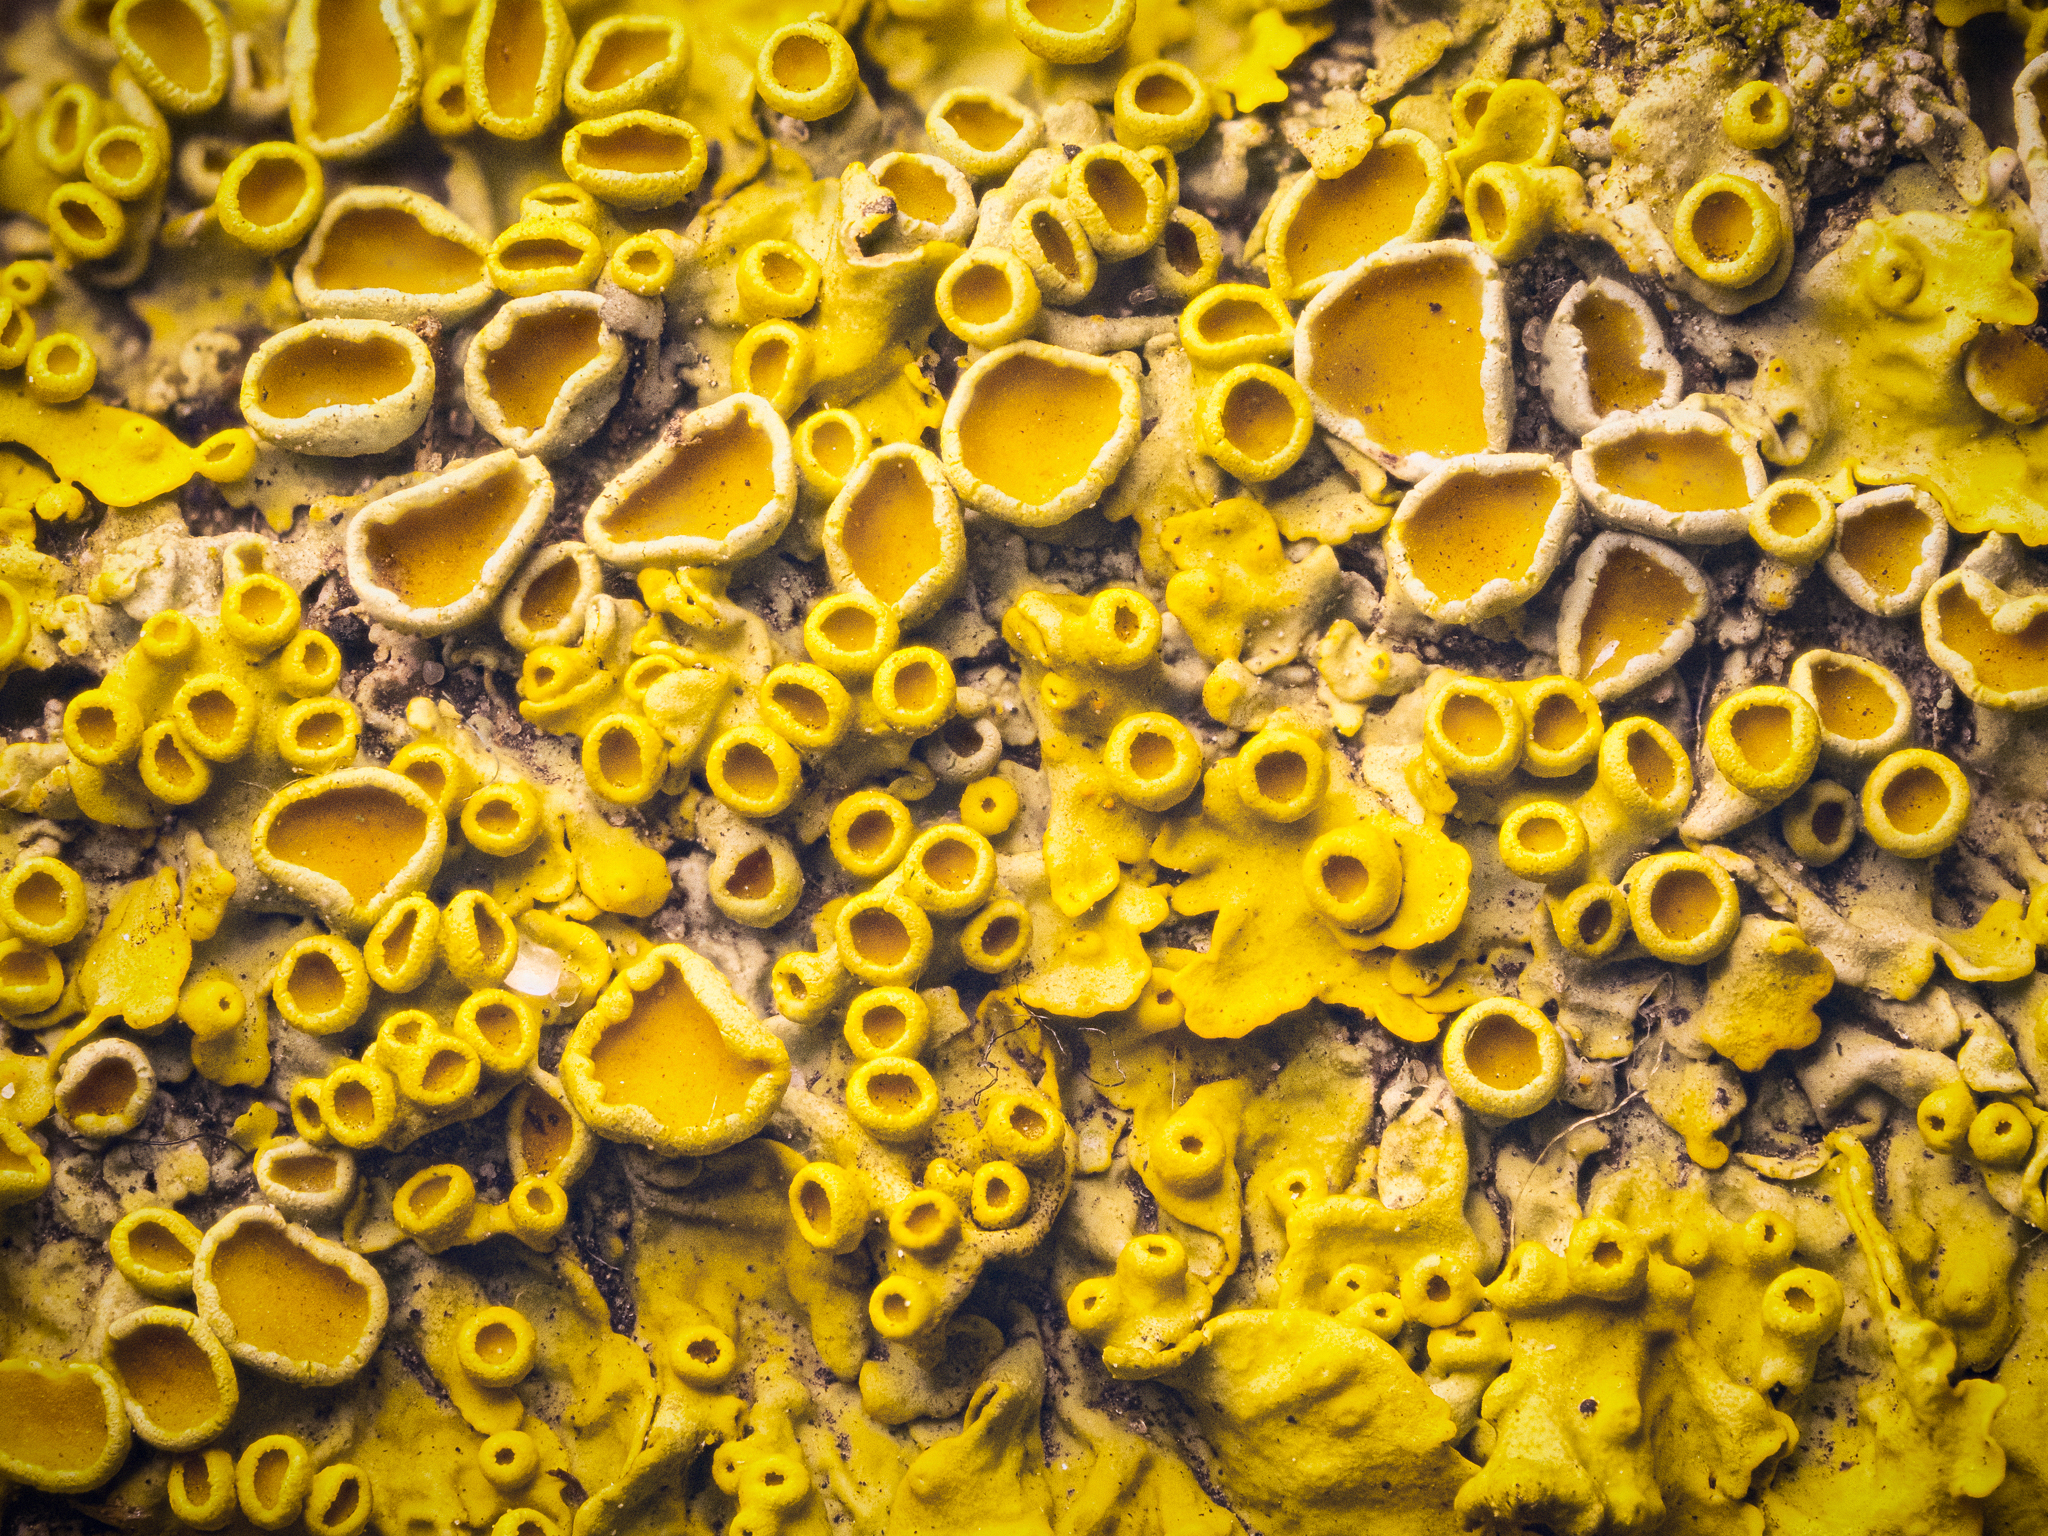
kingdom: Fungi
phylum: Ascomycota
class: Lecanoromycetes
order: Teloschistales
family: Teloschistaceae
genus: Xanthoria
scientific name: Xanthoria parietina
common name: Common orange lichen
